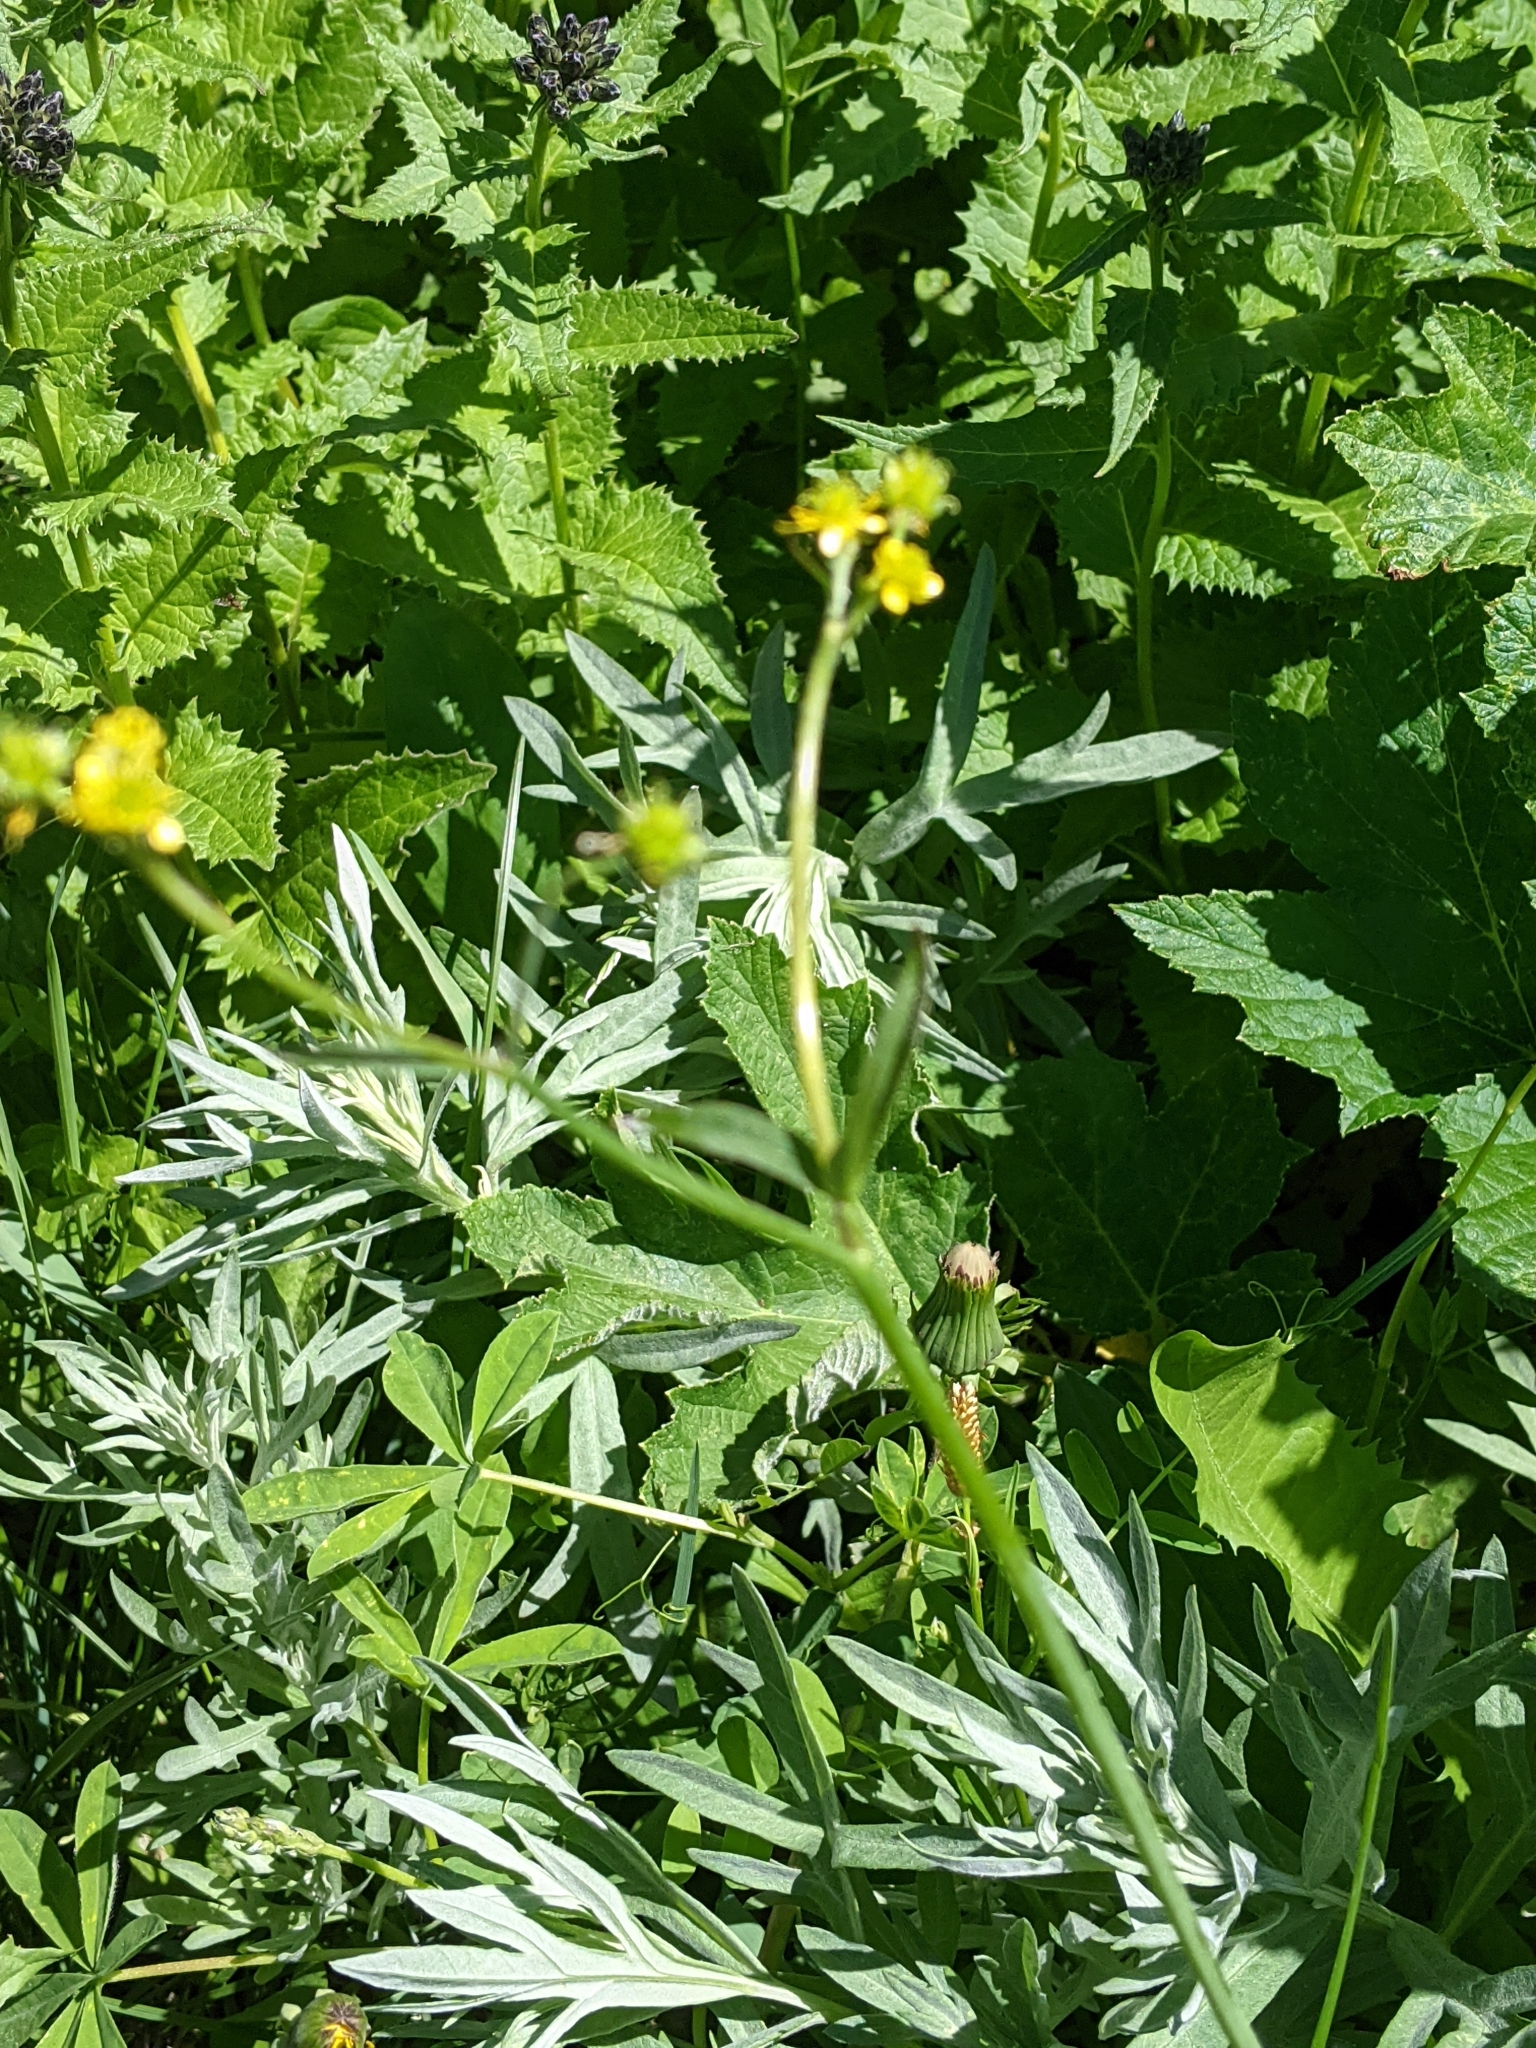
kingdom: Plantae
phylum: Tracheophyta
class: Magnoliopsida
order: Ranunculales
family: Ranunculaceae
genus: Ranunculus
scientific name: Ranunculus uncinatus
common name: Little buttercup
